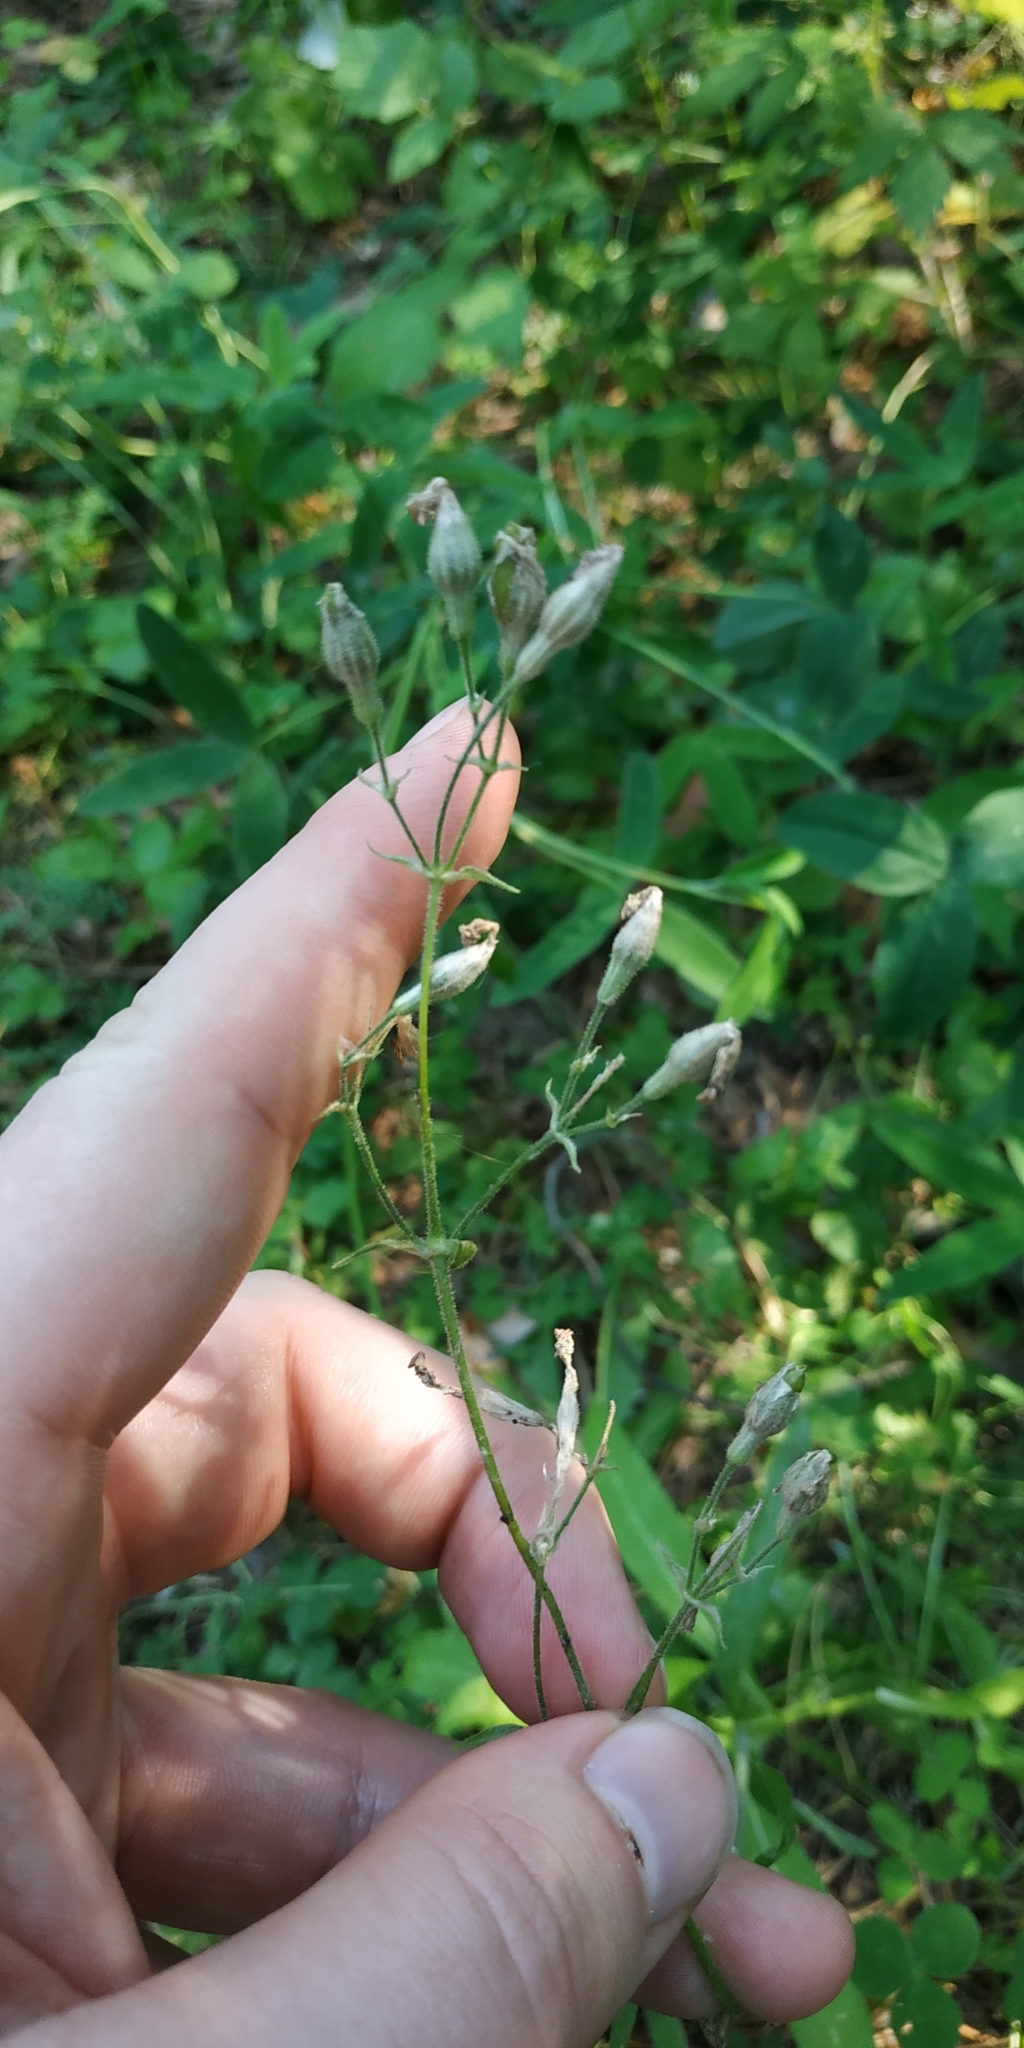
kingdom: Plantae
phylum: Tracheophyta
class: Magnoliopsida
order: Caryophyllales
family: Caryophyllaceae
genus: Silene
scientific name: Silene nutans
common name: Nottingham catchfly
